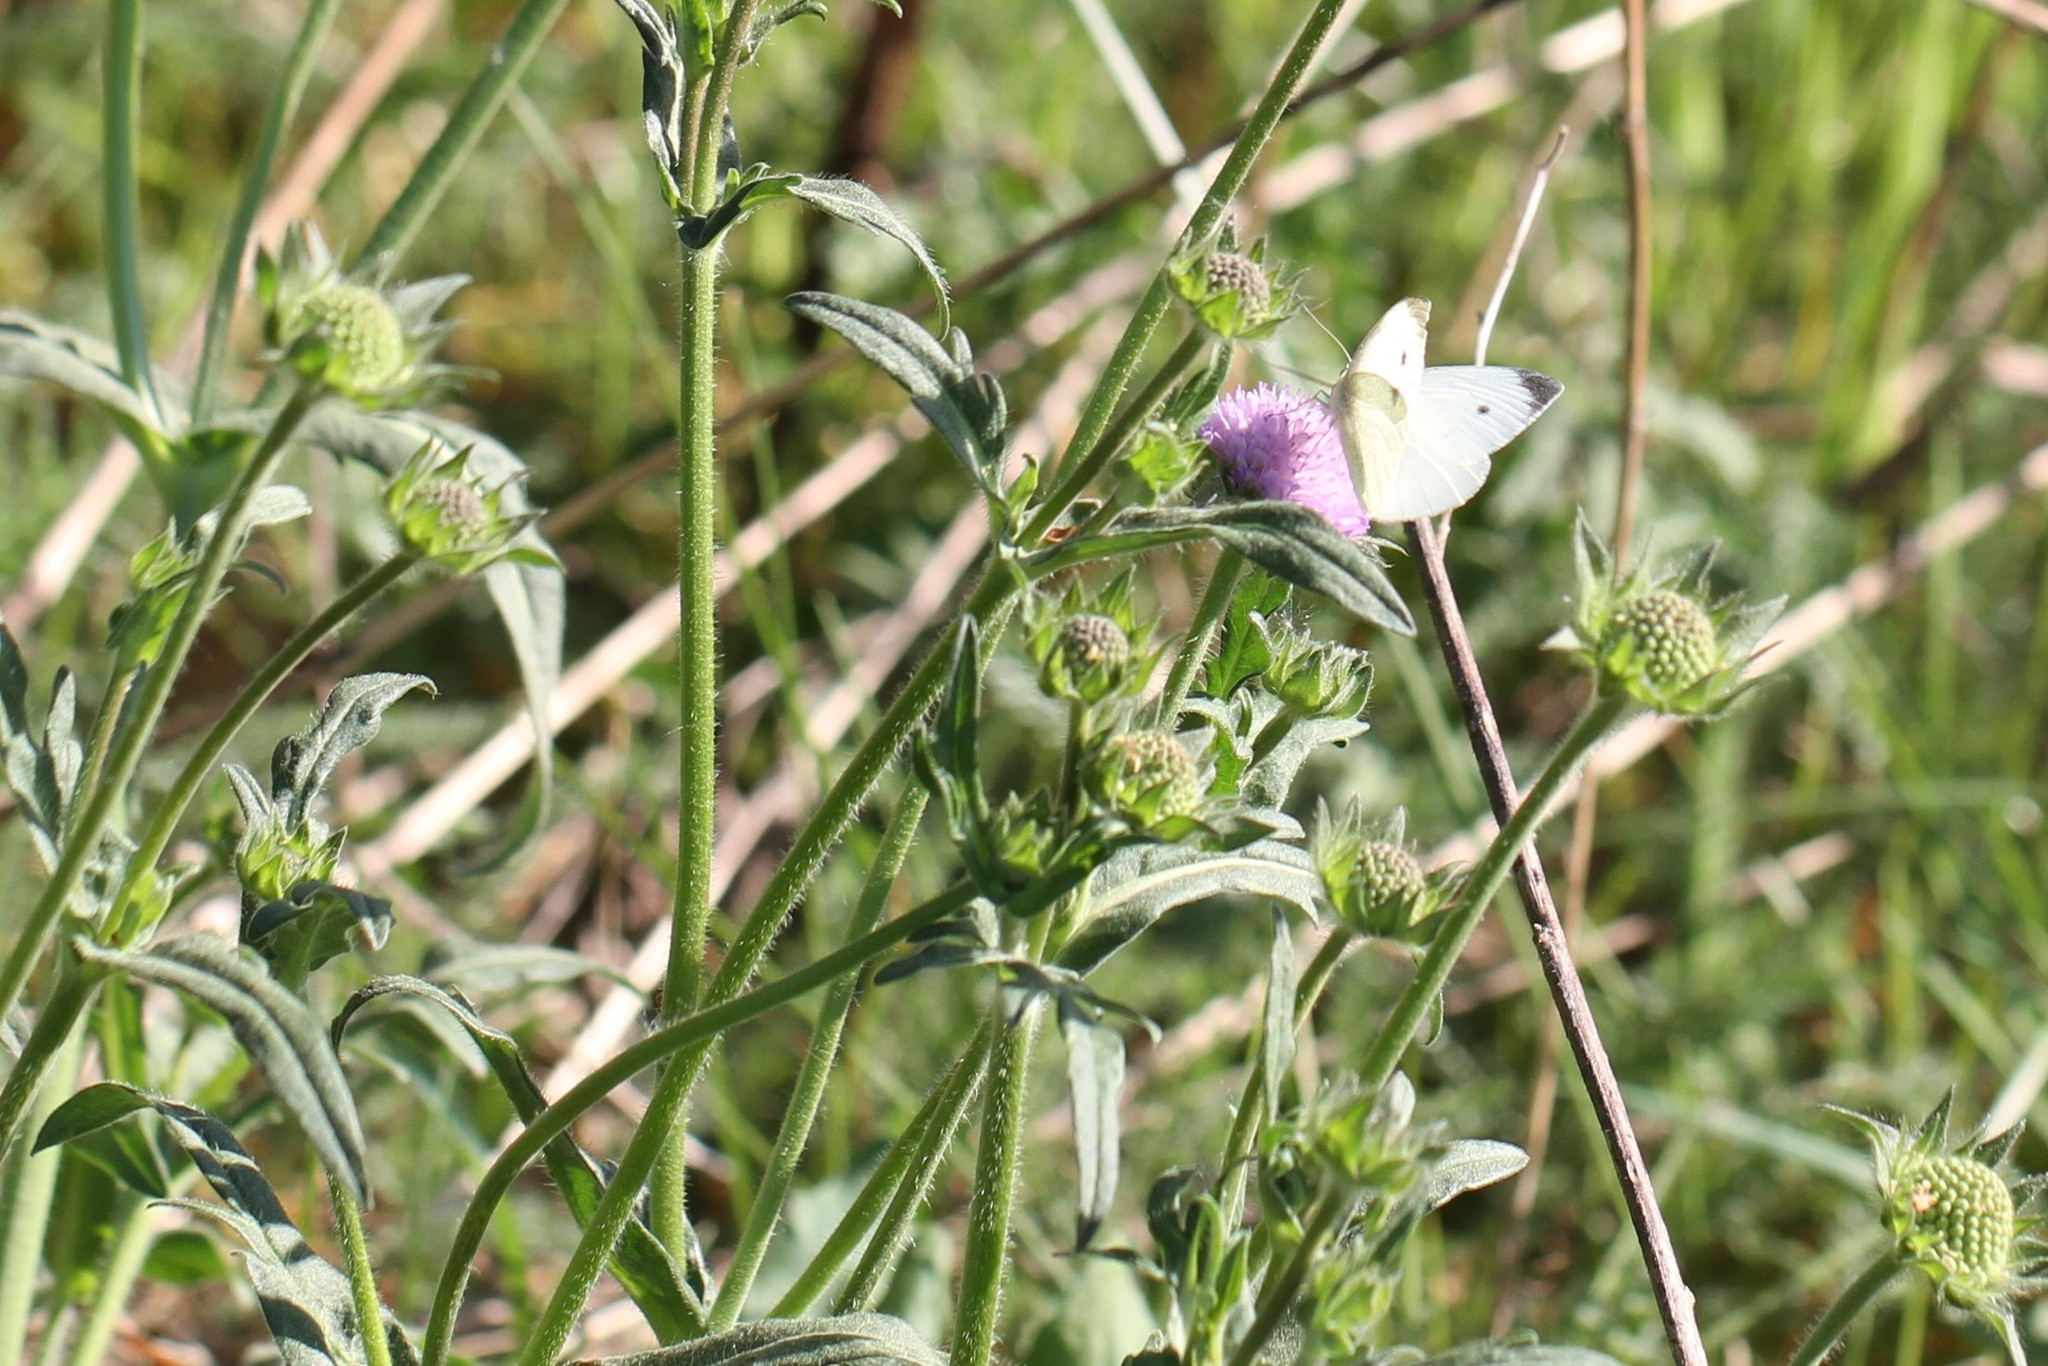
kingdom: Animalia
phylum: Arthropoda
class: Insecta
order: Lepidoptera
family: Pieridae
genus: Pieris
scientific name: Pieris rapae
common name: Small white
